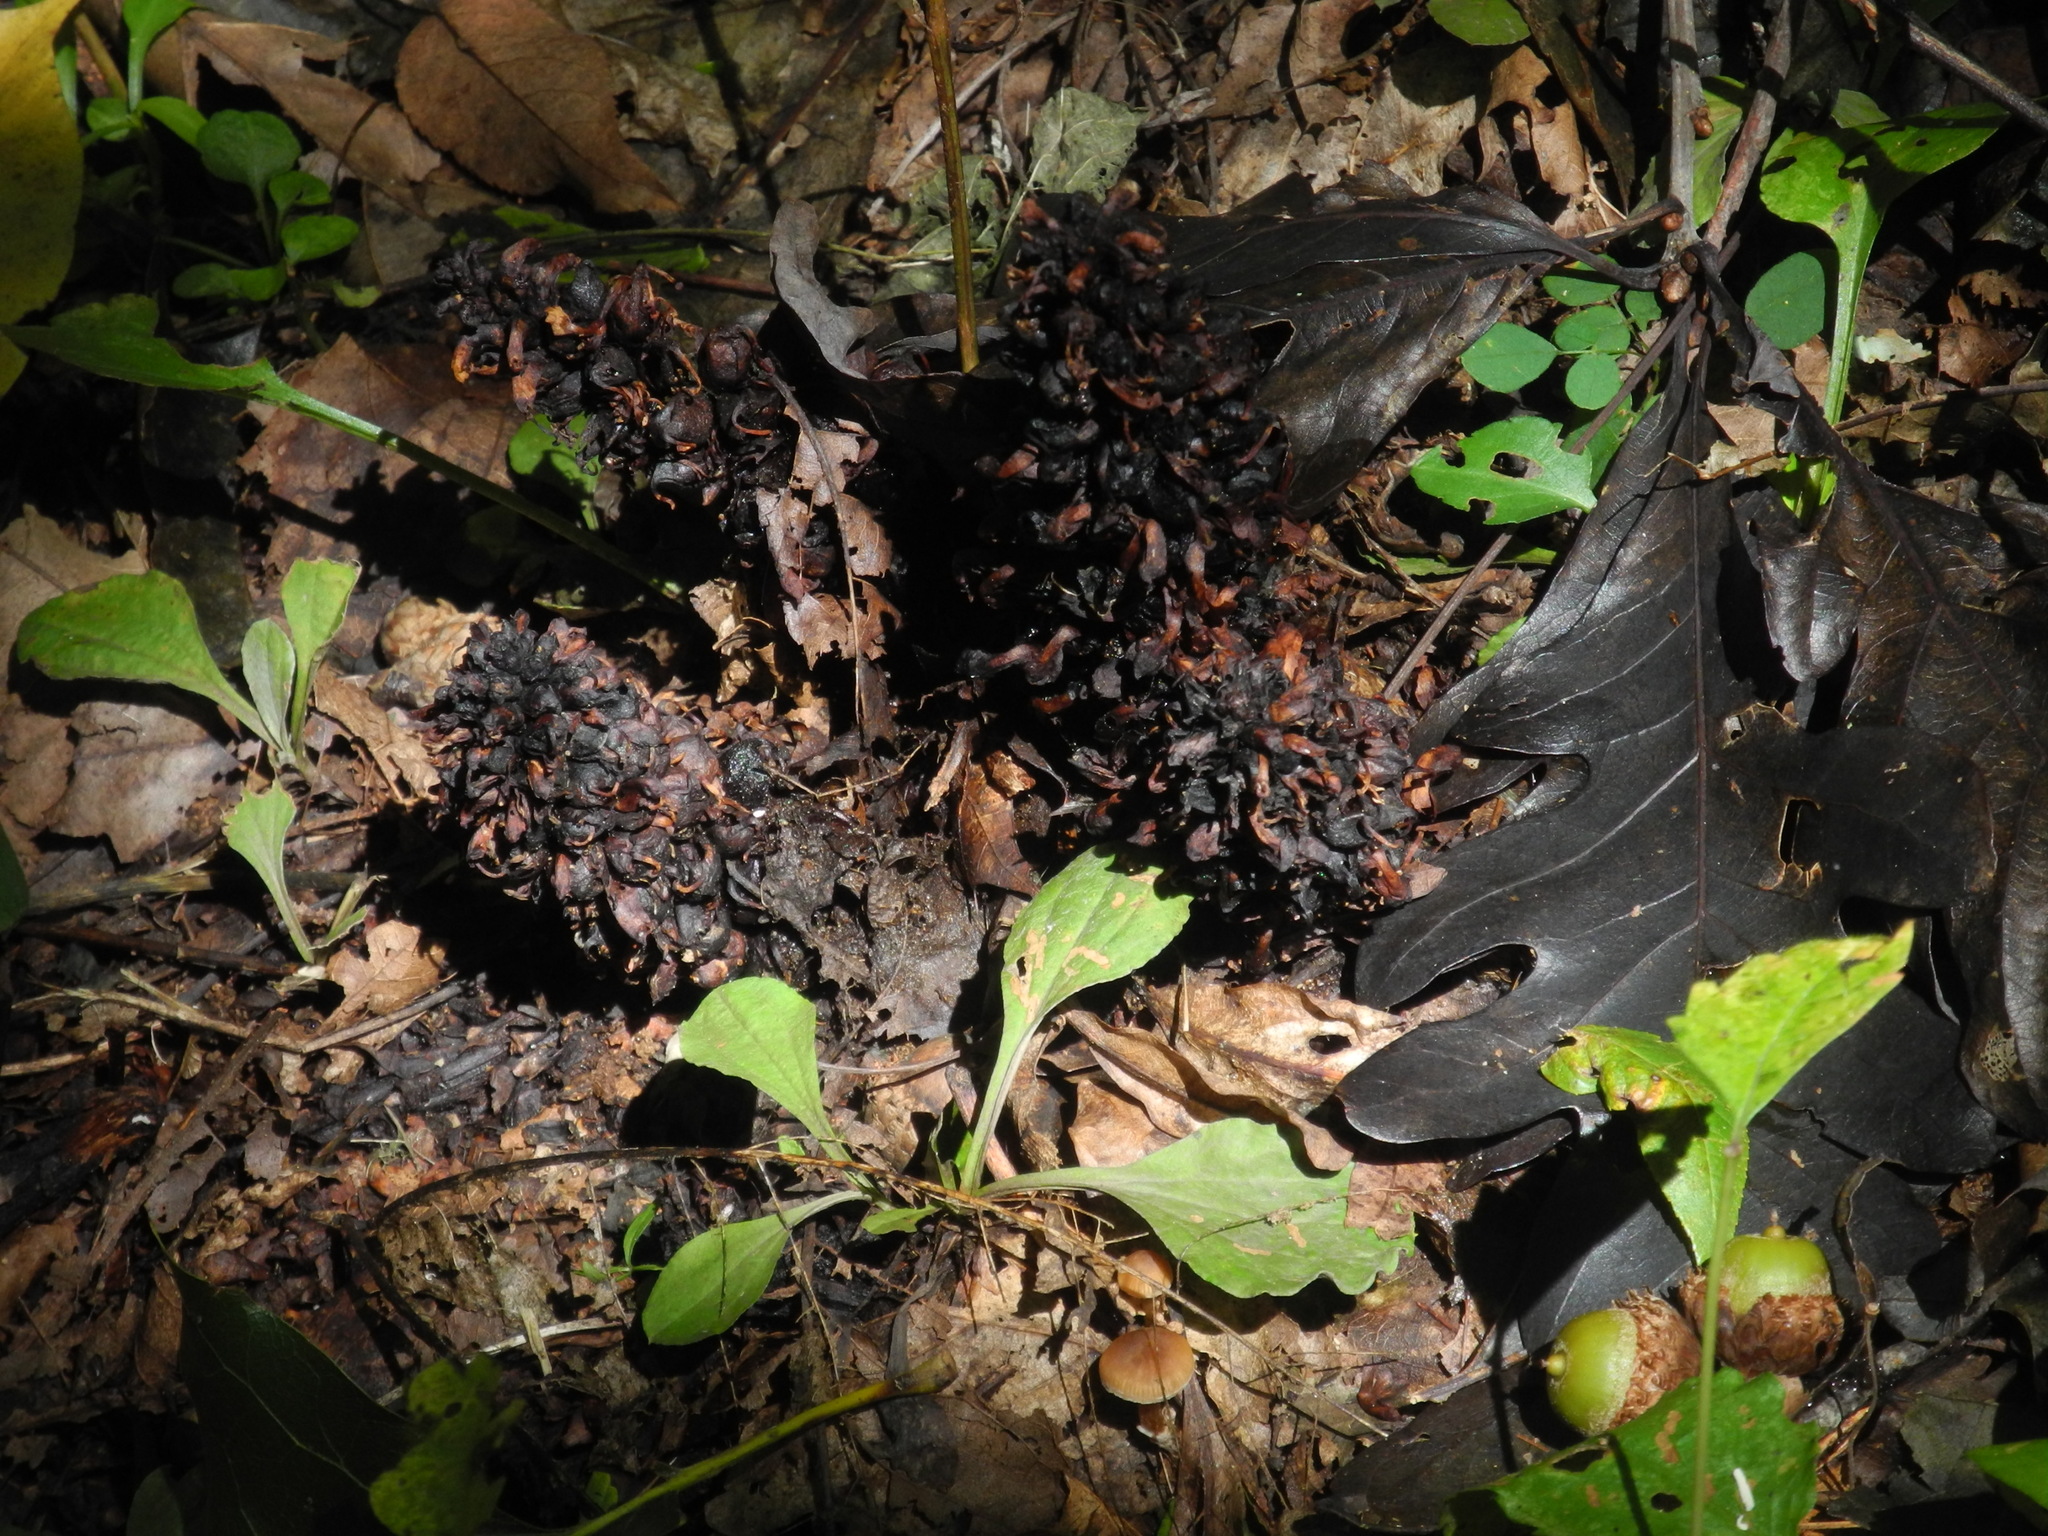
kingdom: Plantae
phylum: Tracheophyta
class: Magnoliopsida
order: Lamiales
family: Orobanchaceae
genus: Conopholis
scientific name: Conopholis americana
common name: American cancer-root
